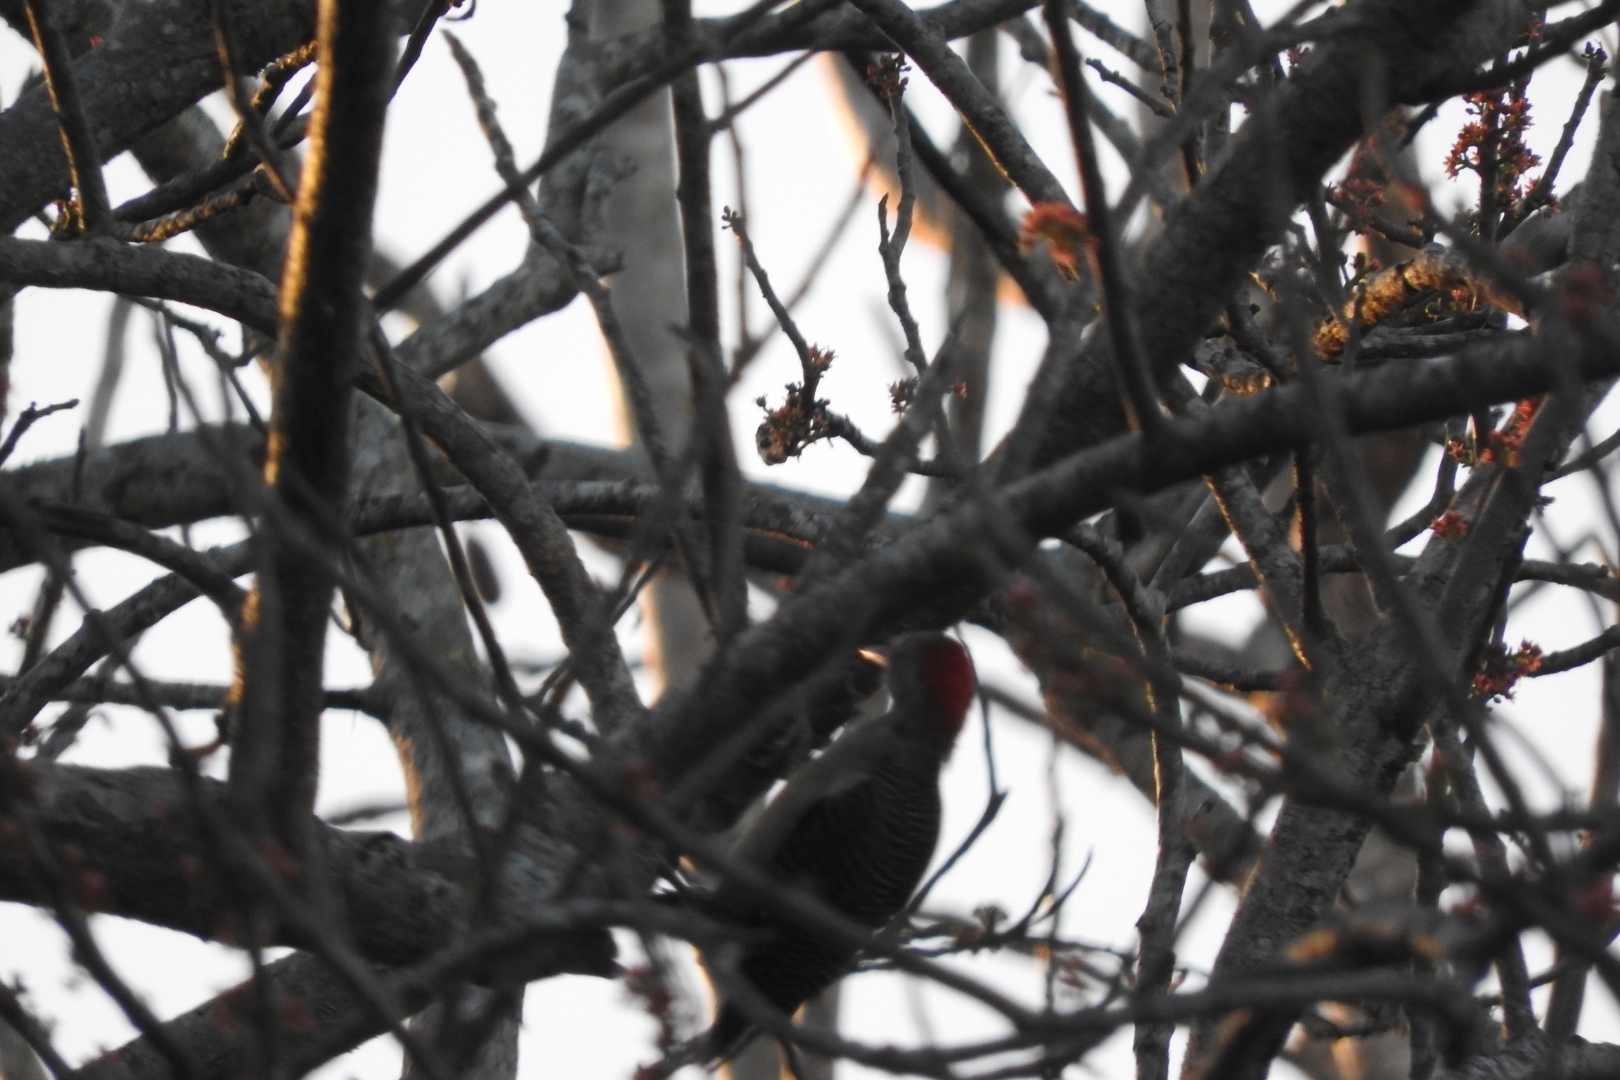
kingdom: Animalia
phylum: Chordata
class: Aves
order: Piciformes
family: Picidae
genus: Melanerpes
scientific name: Melanerpes aurifrons
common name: Golden-fronted woodpecker
